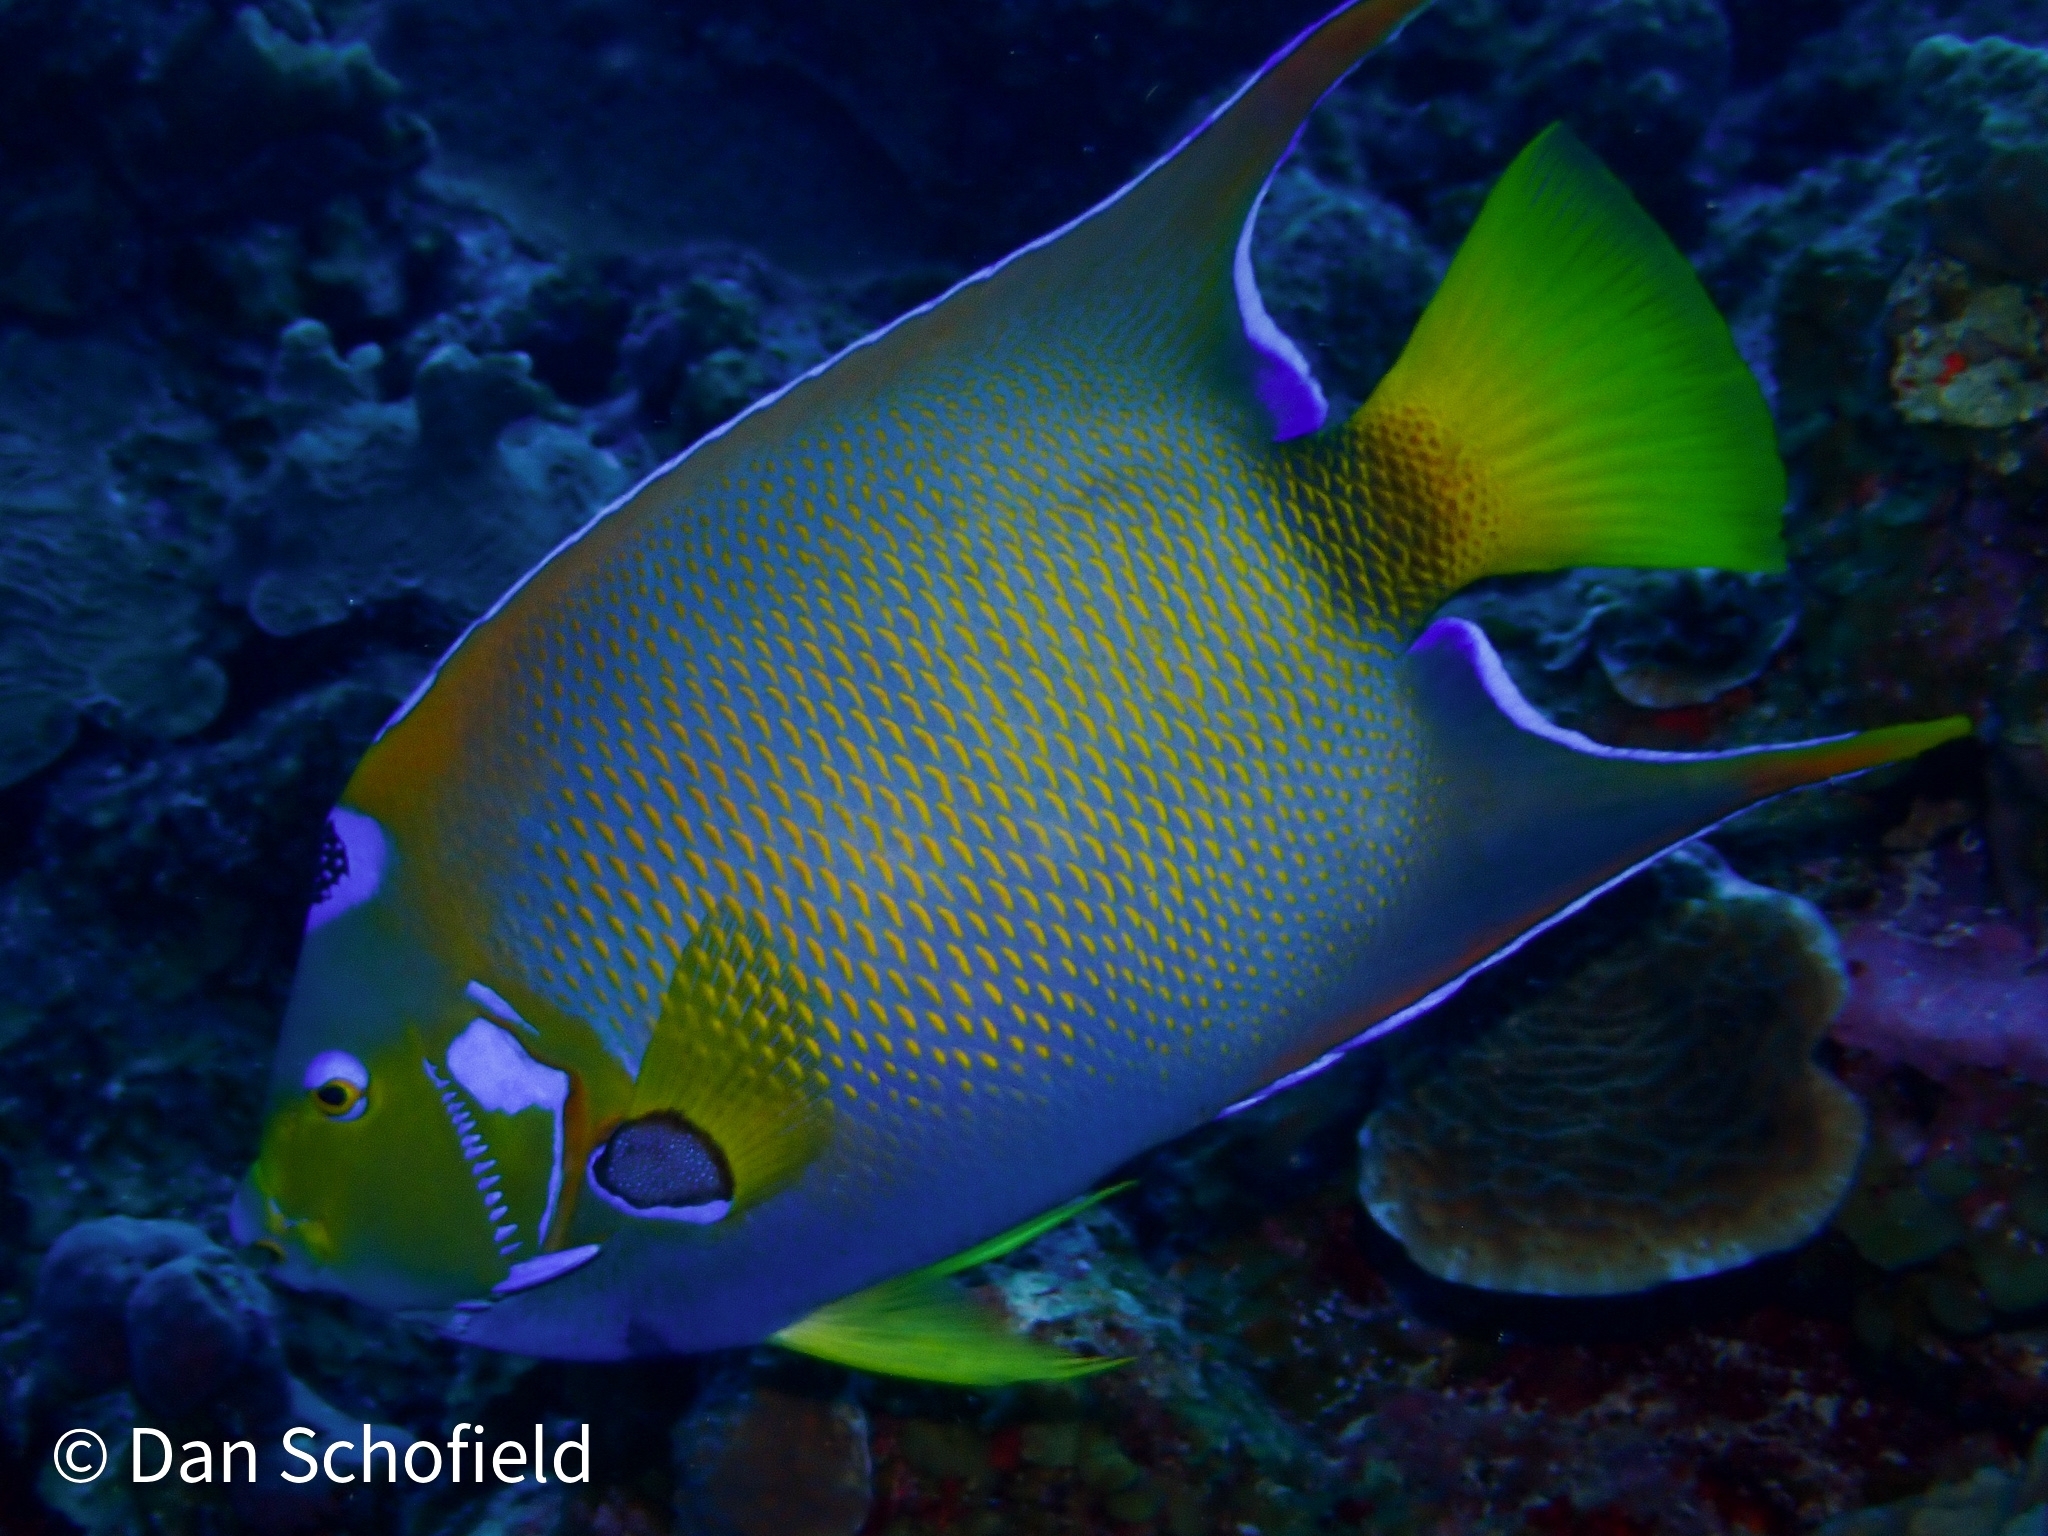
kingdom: Animalia
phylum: Chordata
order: Perciformes
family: Pomacanthidae
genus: Holacanthus
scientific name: Holacanthus ciliaris
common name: Queen angelfish
